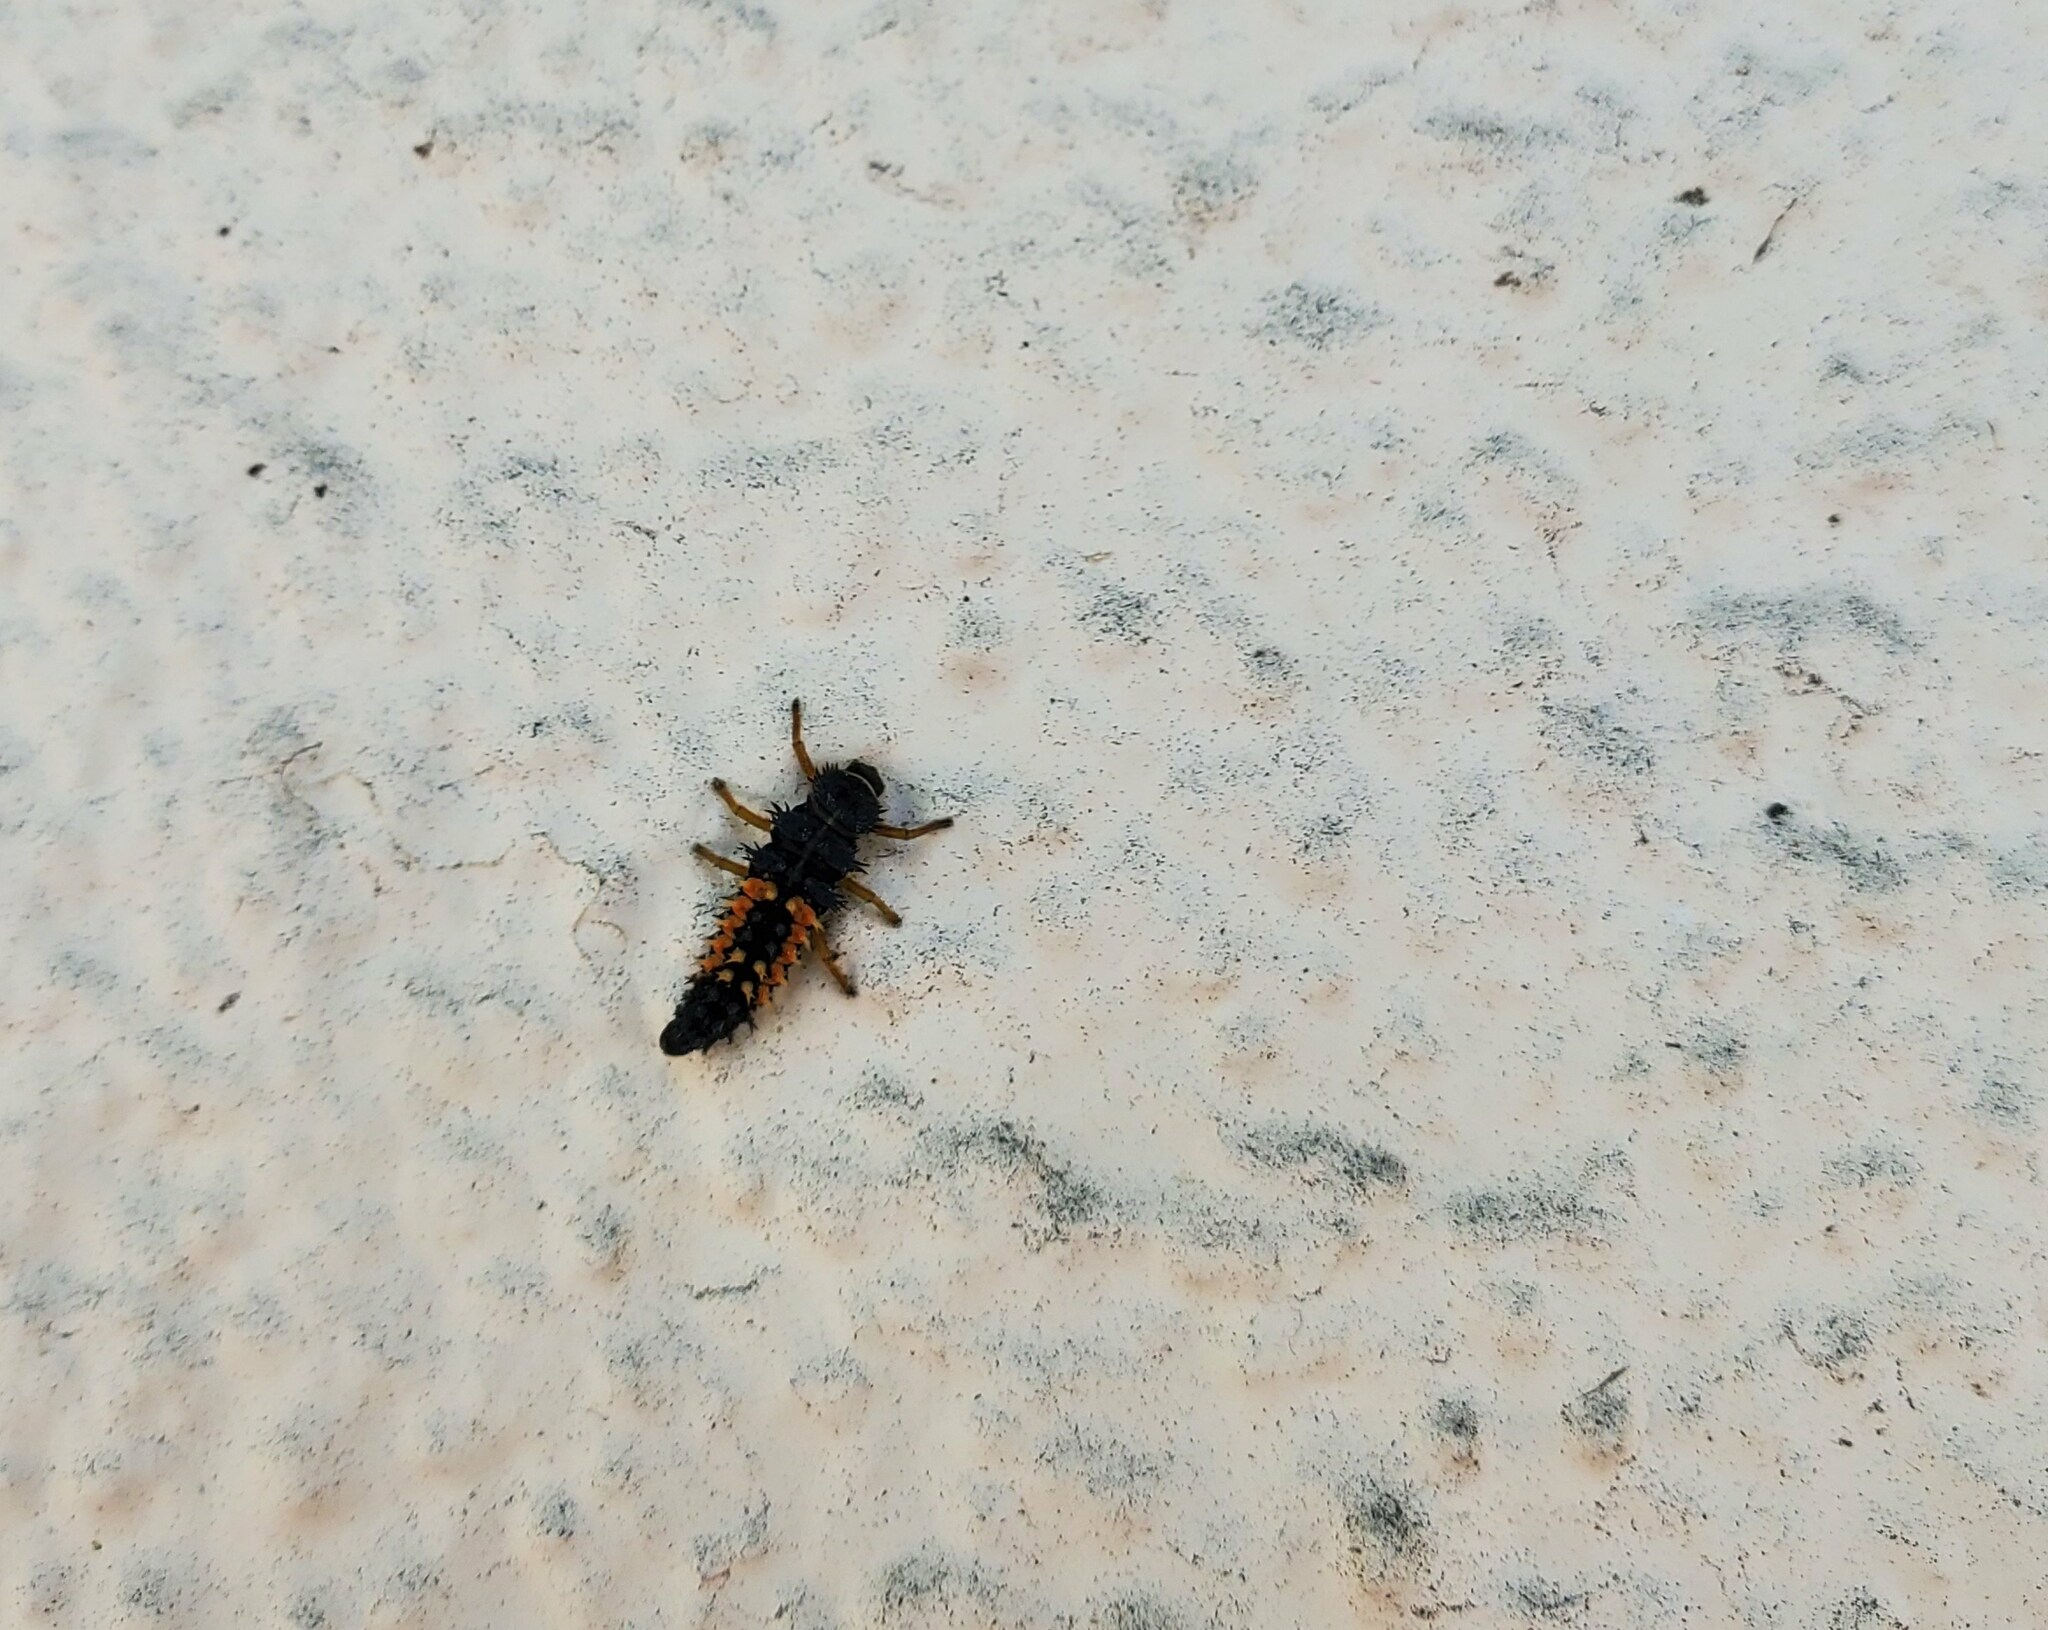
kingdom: Animalia
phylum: Arthropoda
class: Insecta
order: Coleoptera
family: Coccinellidae
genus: Harmonia
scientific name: Harmonia axyridis
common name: Harlequin ladybird
